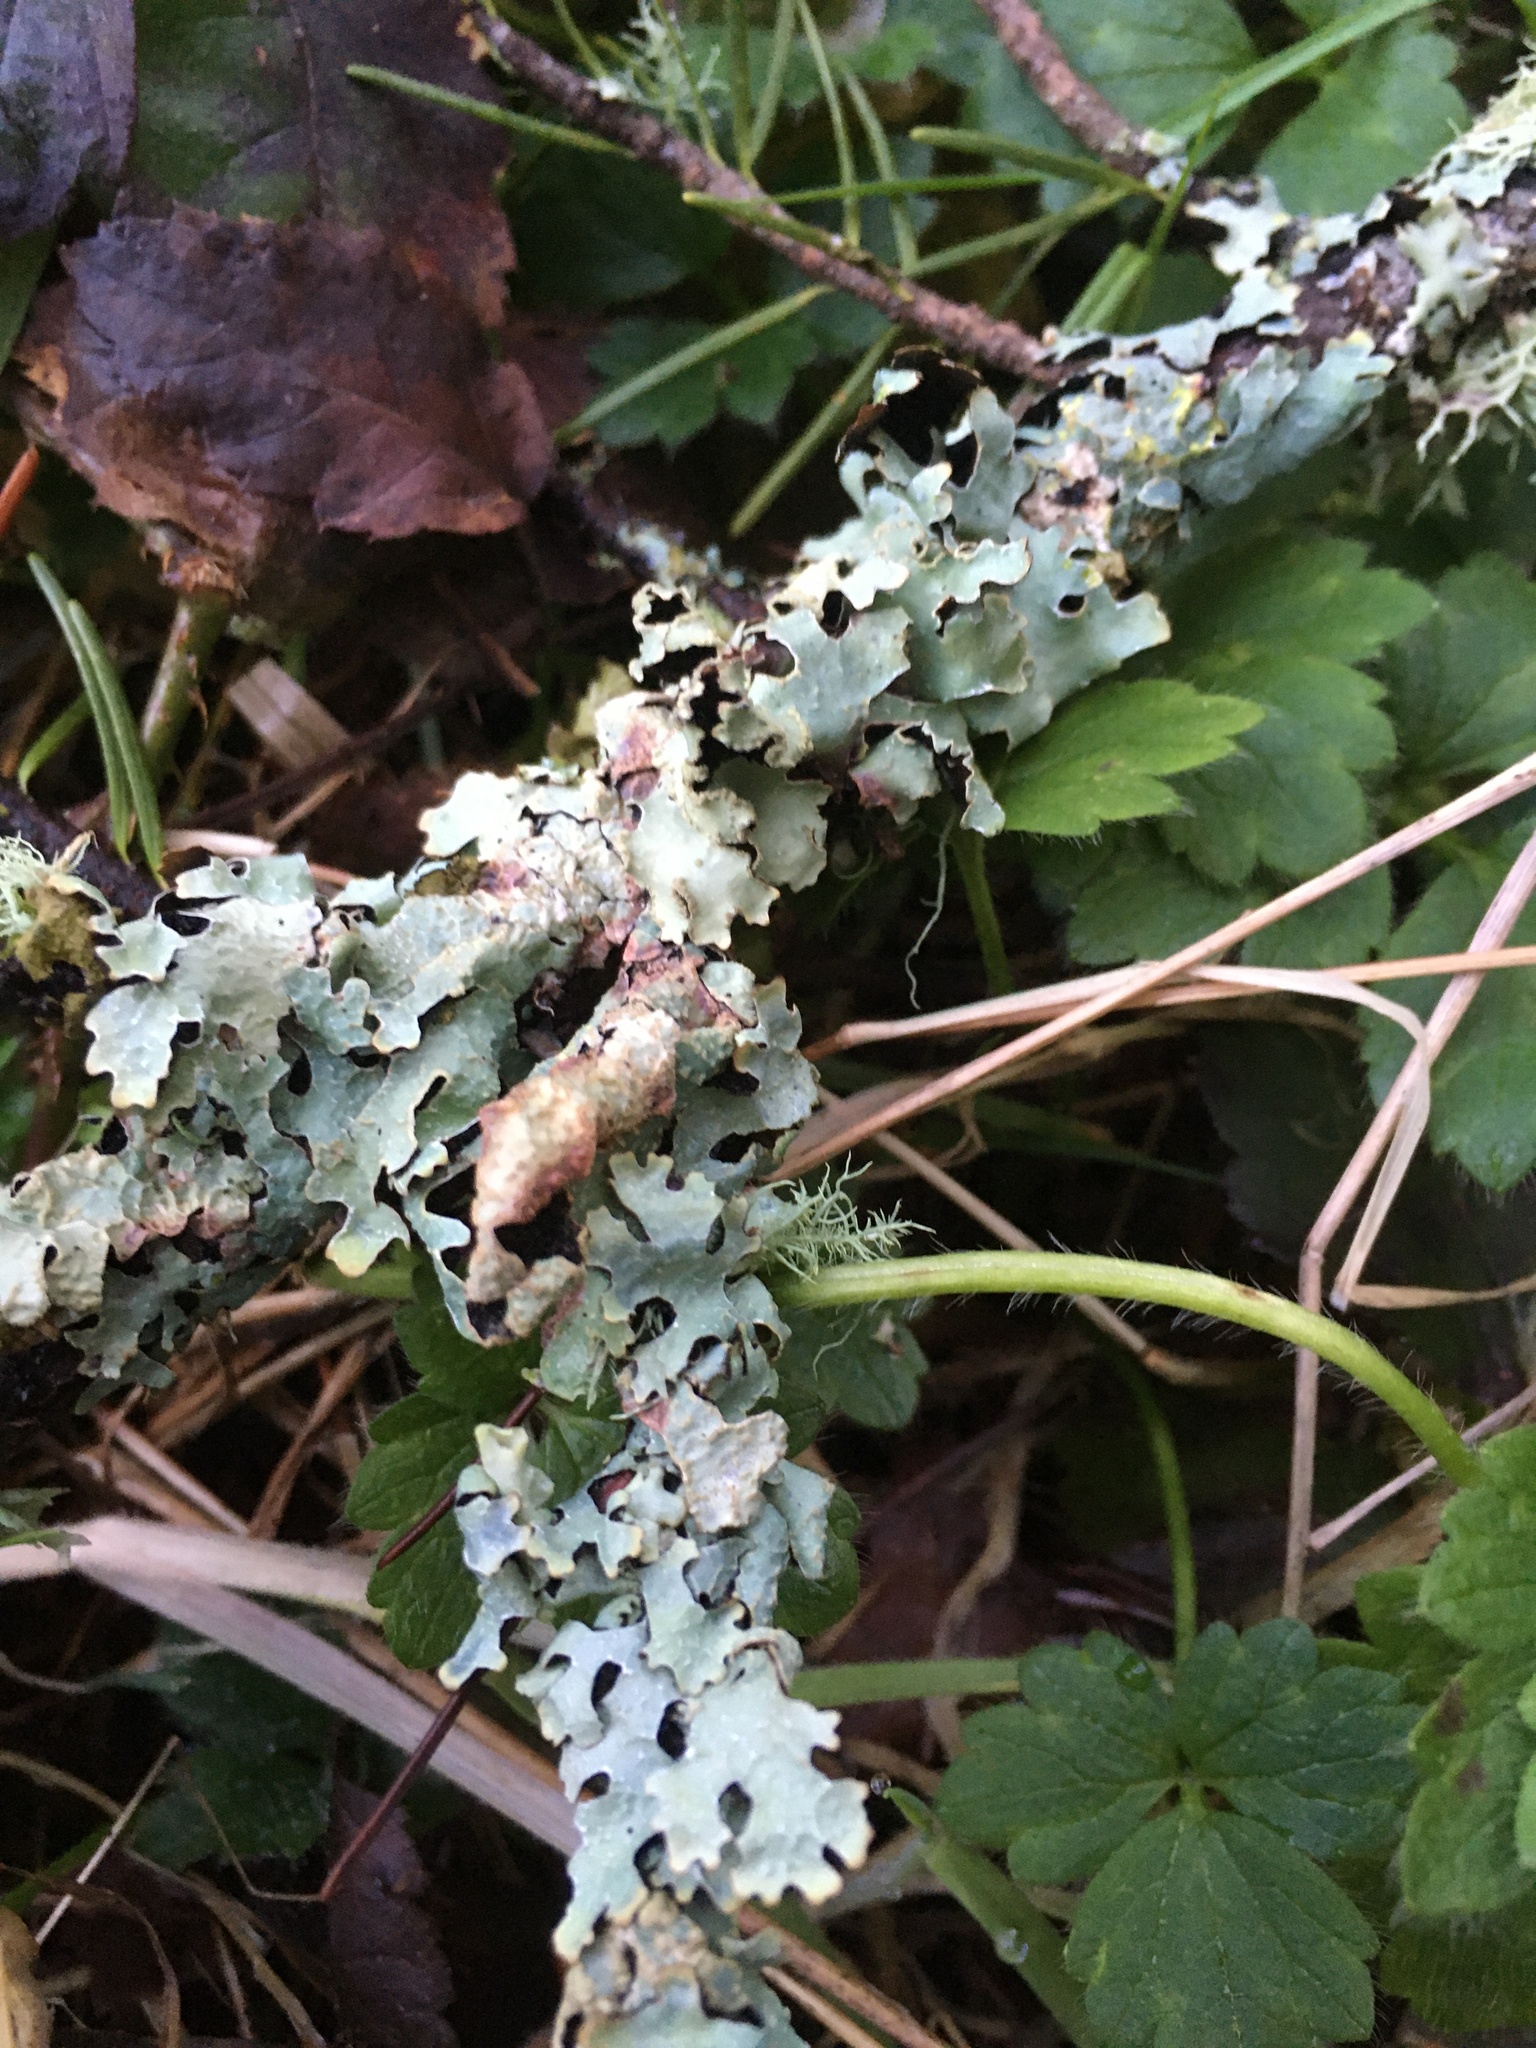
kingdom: Fungi
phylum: Ascomycota
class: Lecanoromycetes
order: Lecanorales
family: Parmeliaceae
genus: Parmelia
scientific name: Parmelia sulcata
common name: Netted shield lichen
